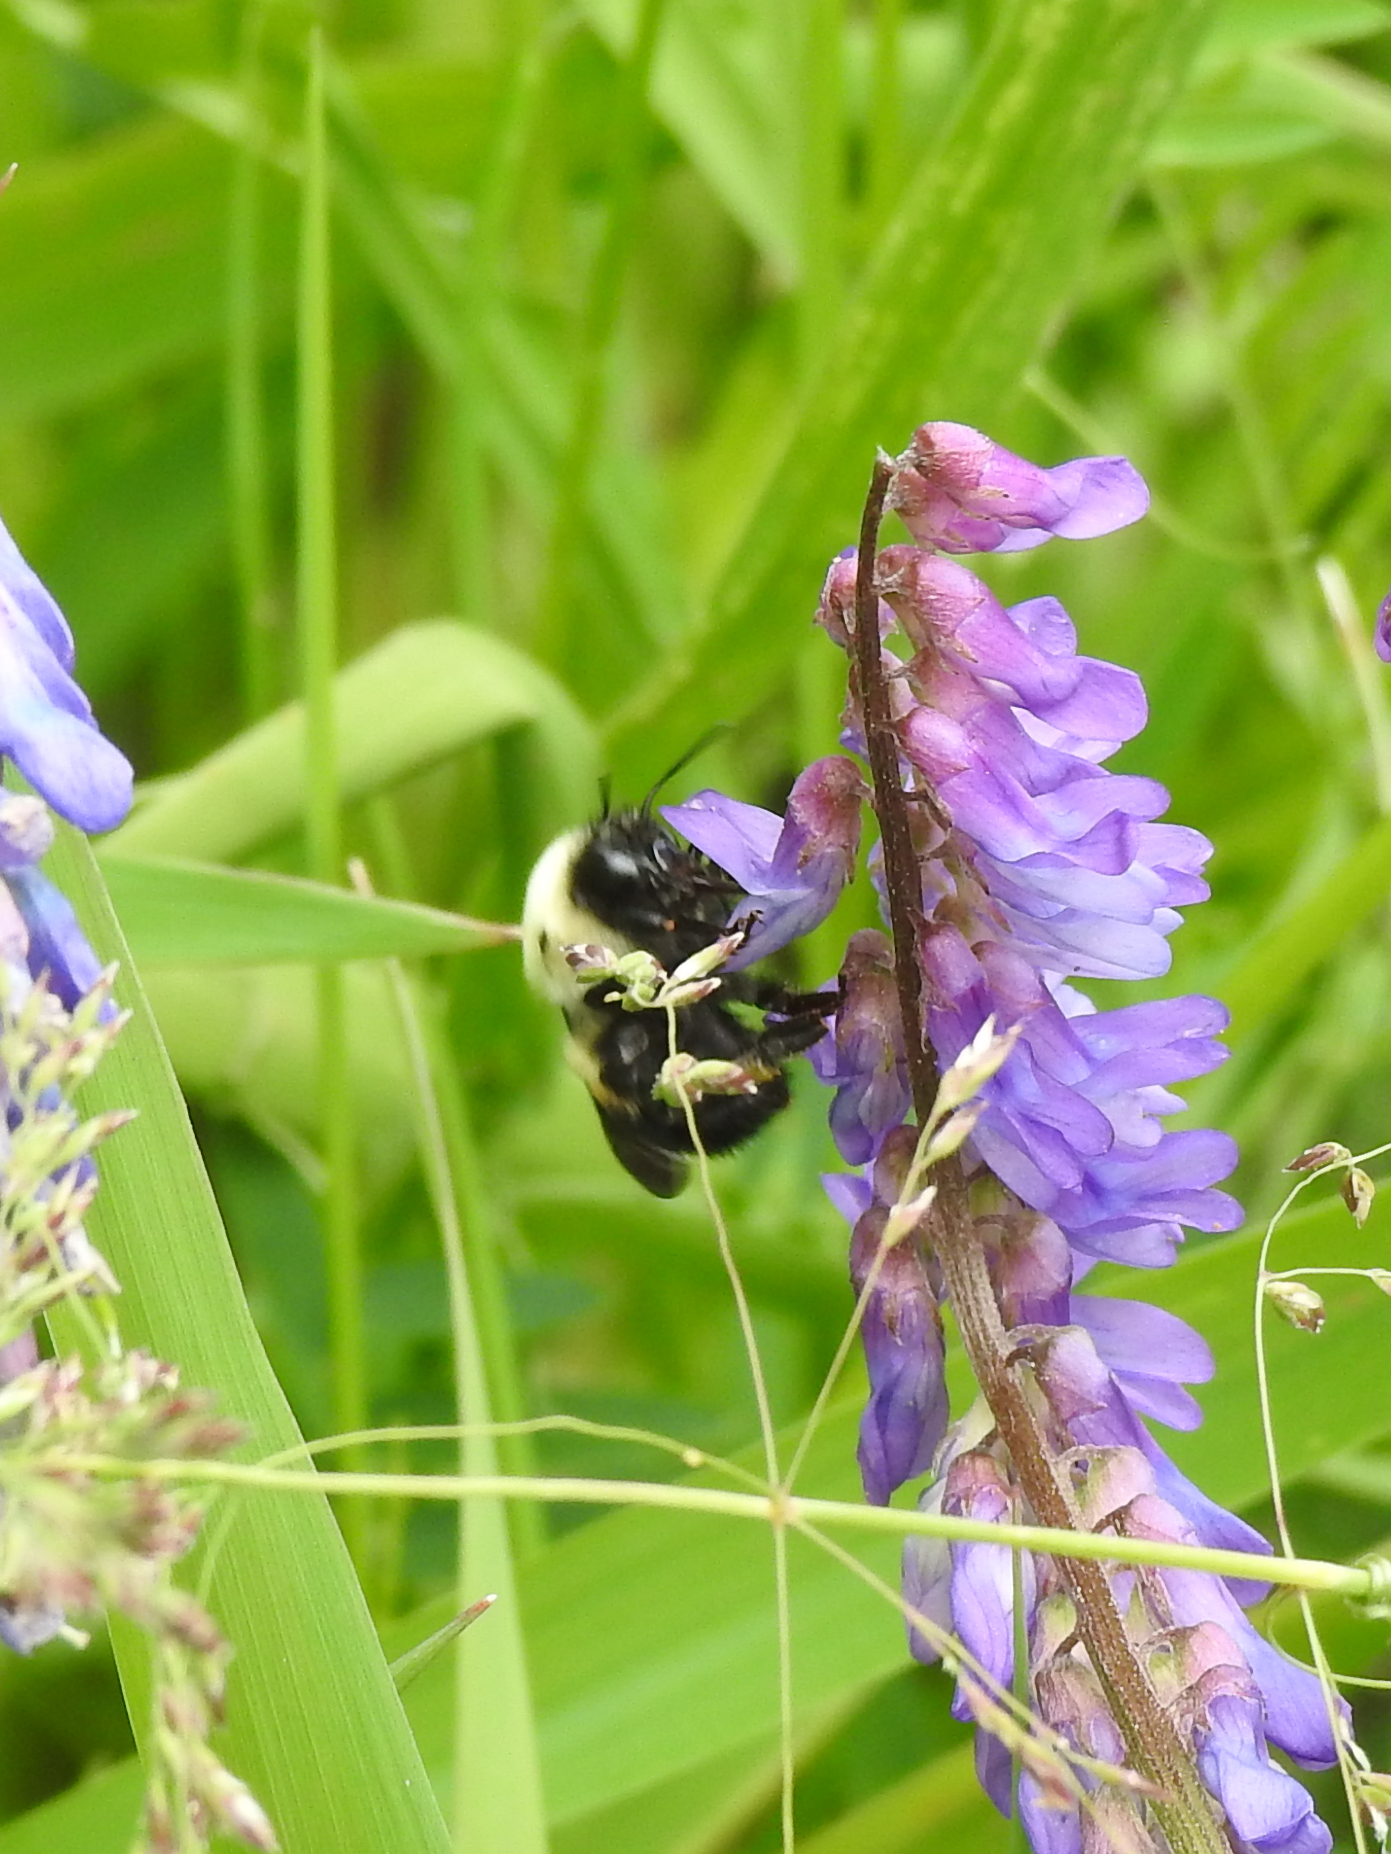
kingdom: Animalia
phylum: Arthropoda
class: Insecta
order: Hymenoptera
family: Apidae
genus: Bombus
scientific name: Bombus griseocollis
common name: Brown-belted bumble bee
